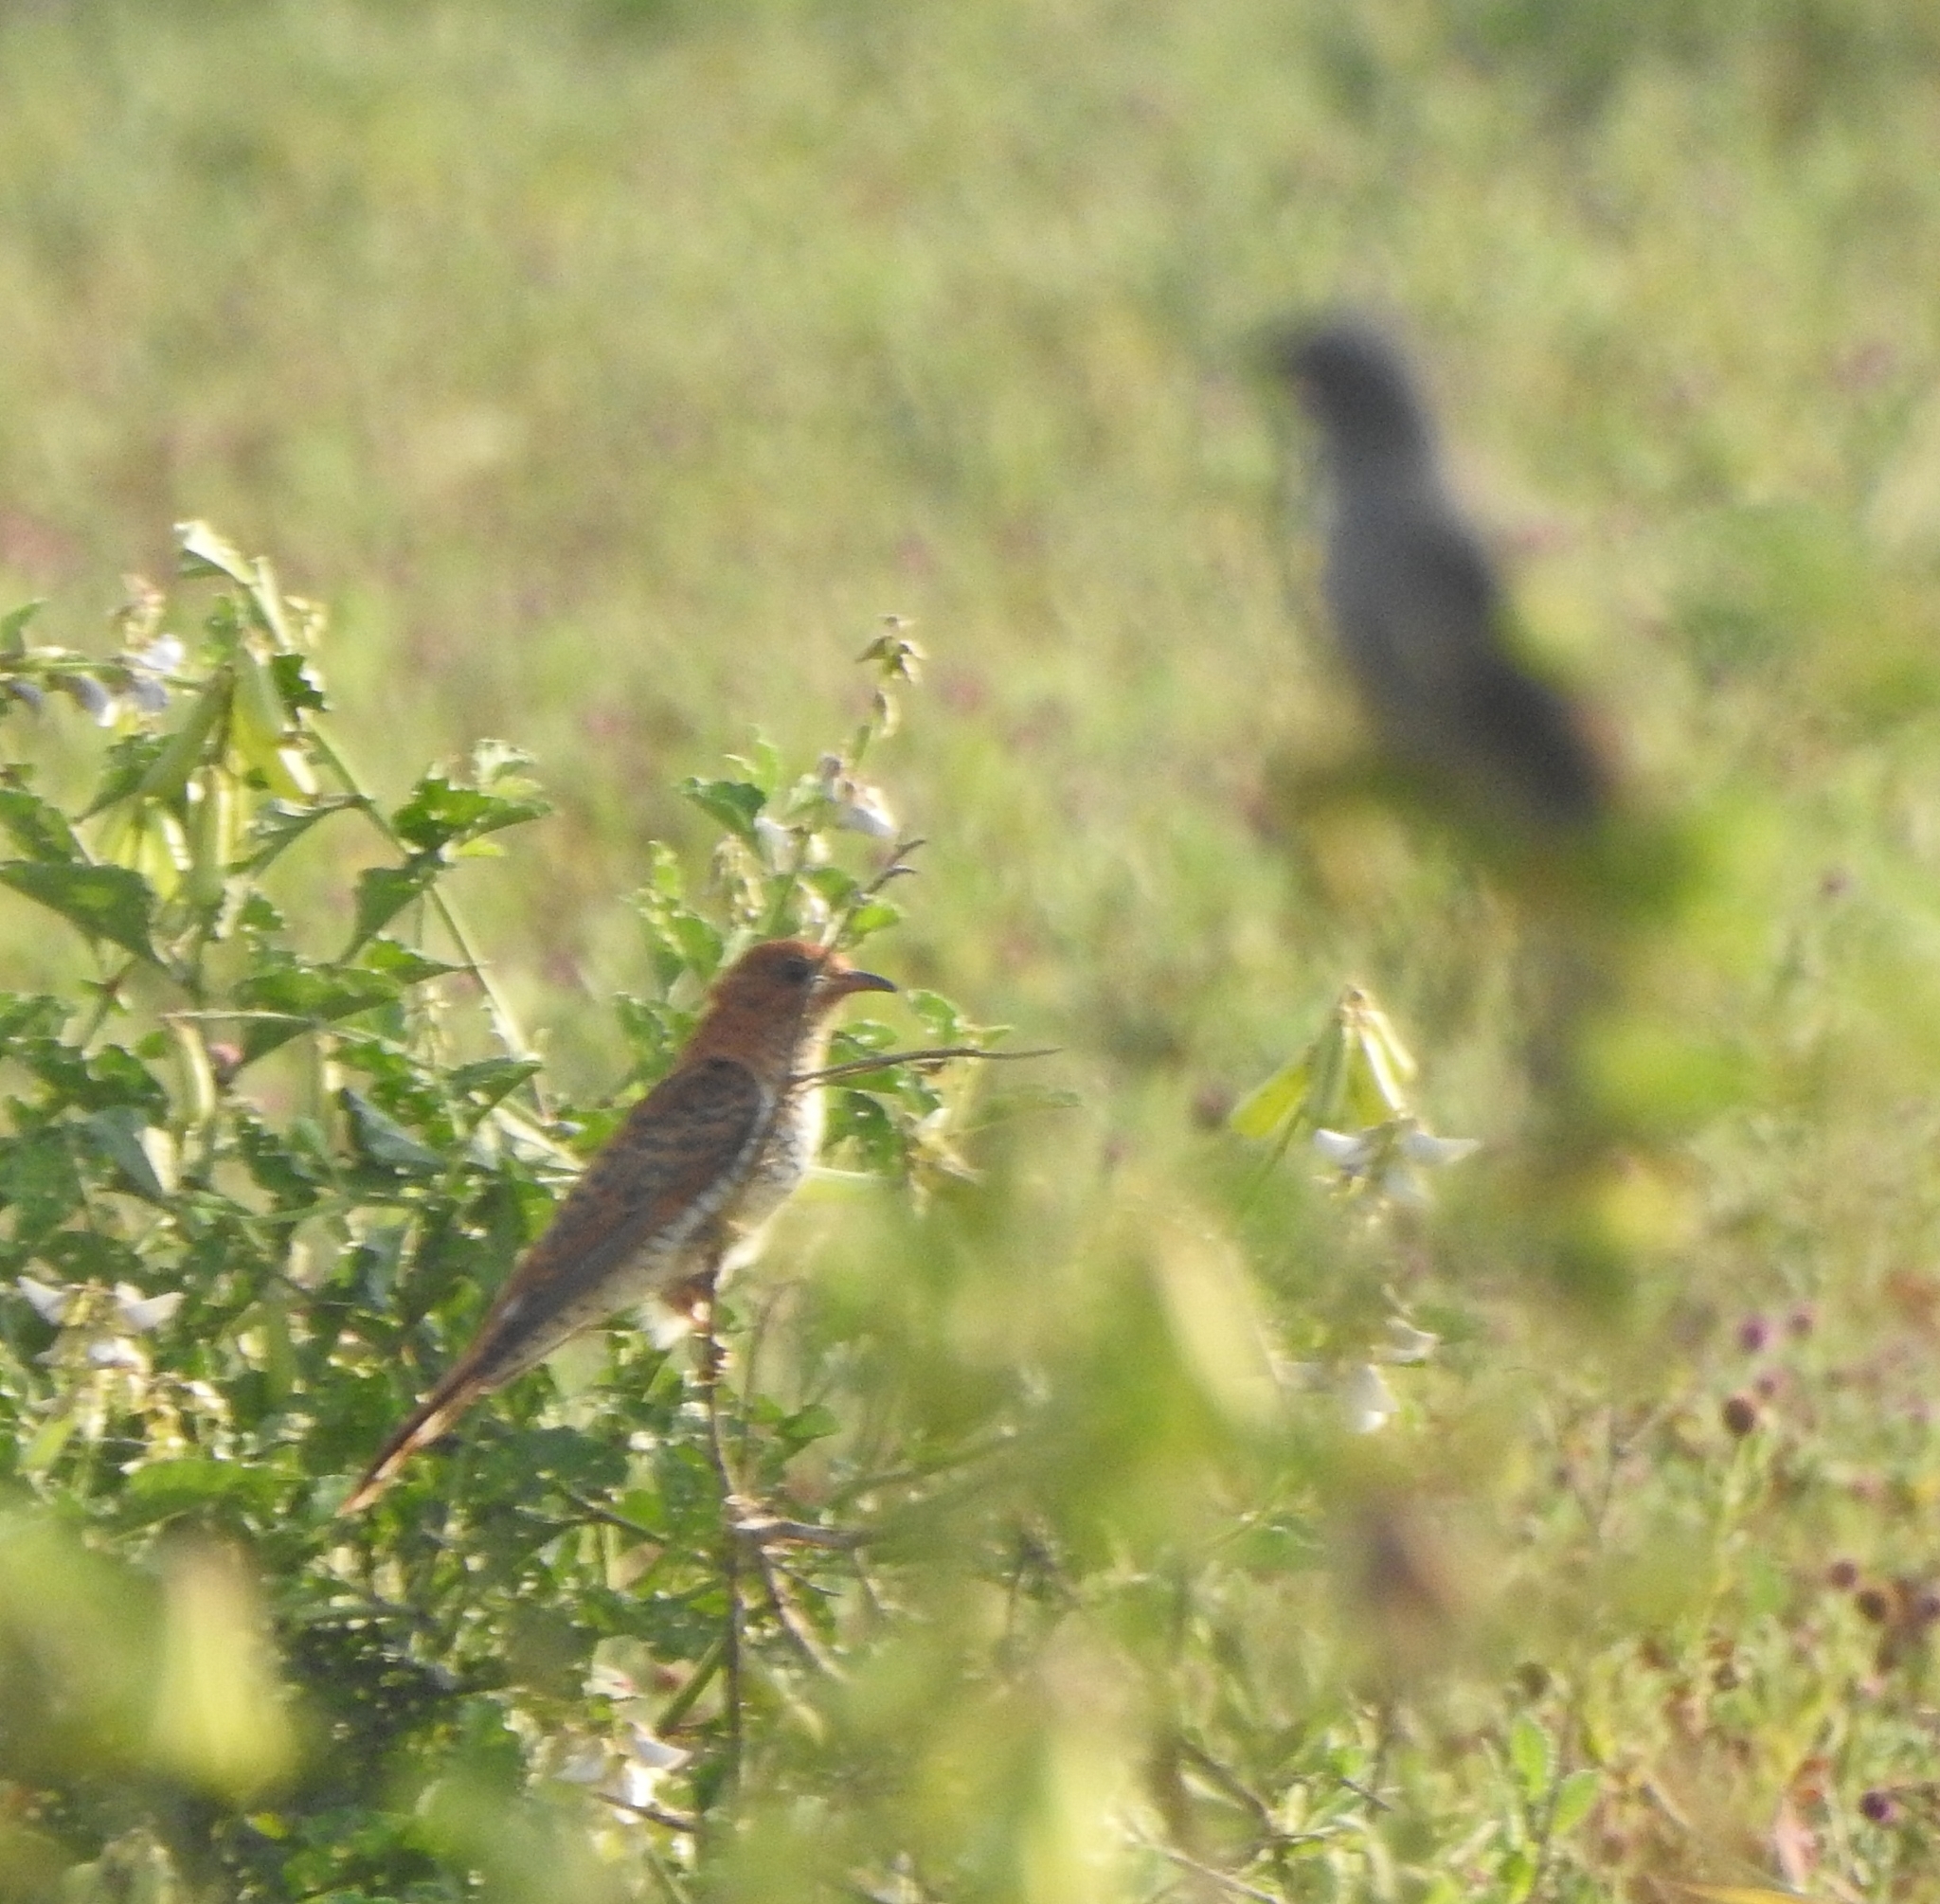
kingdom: Animalia
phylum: Chordata
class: Aves
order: Cuculiformes
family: Cuculidae
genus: Cacomantis
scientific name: Cacomantis passerinus
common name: Grey-bellied cuckoo
